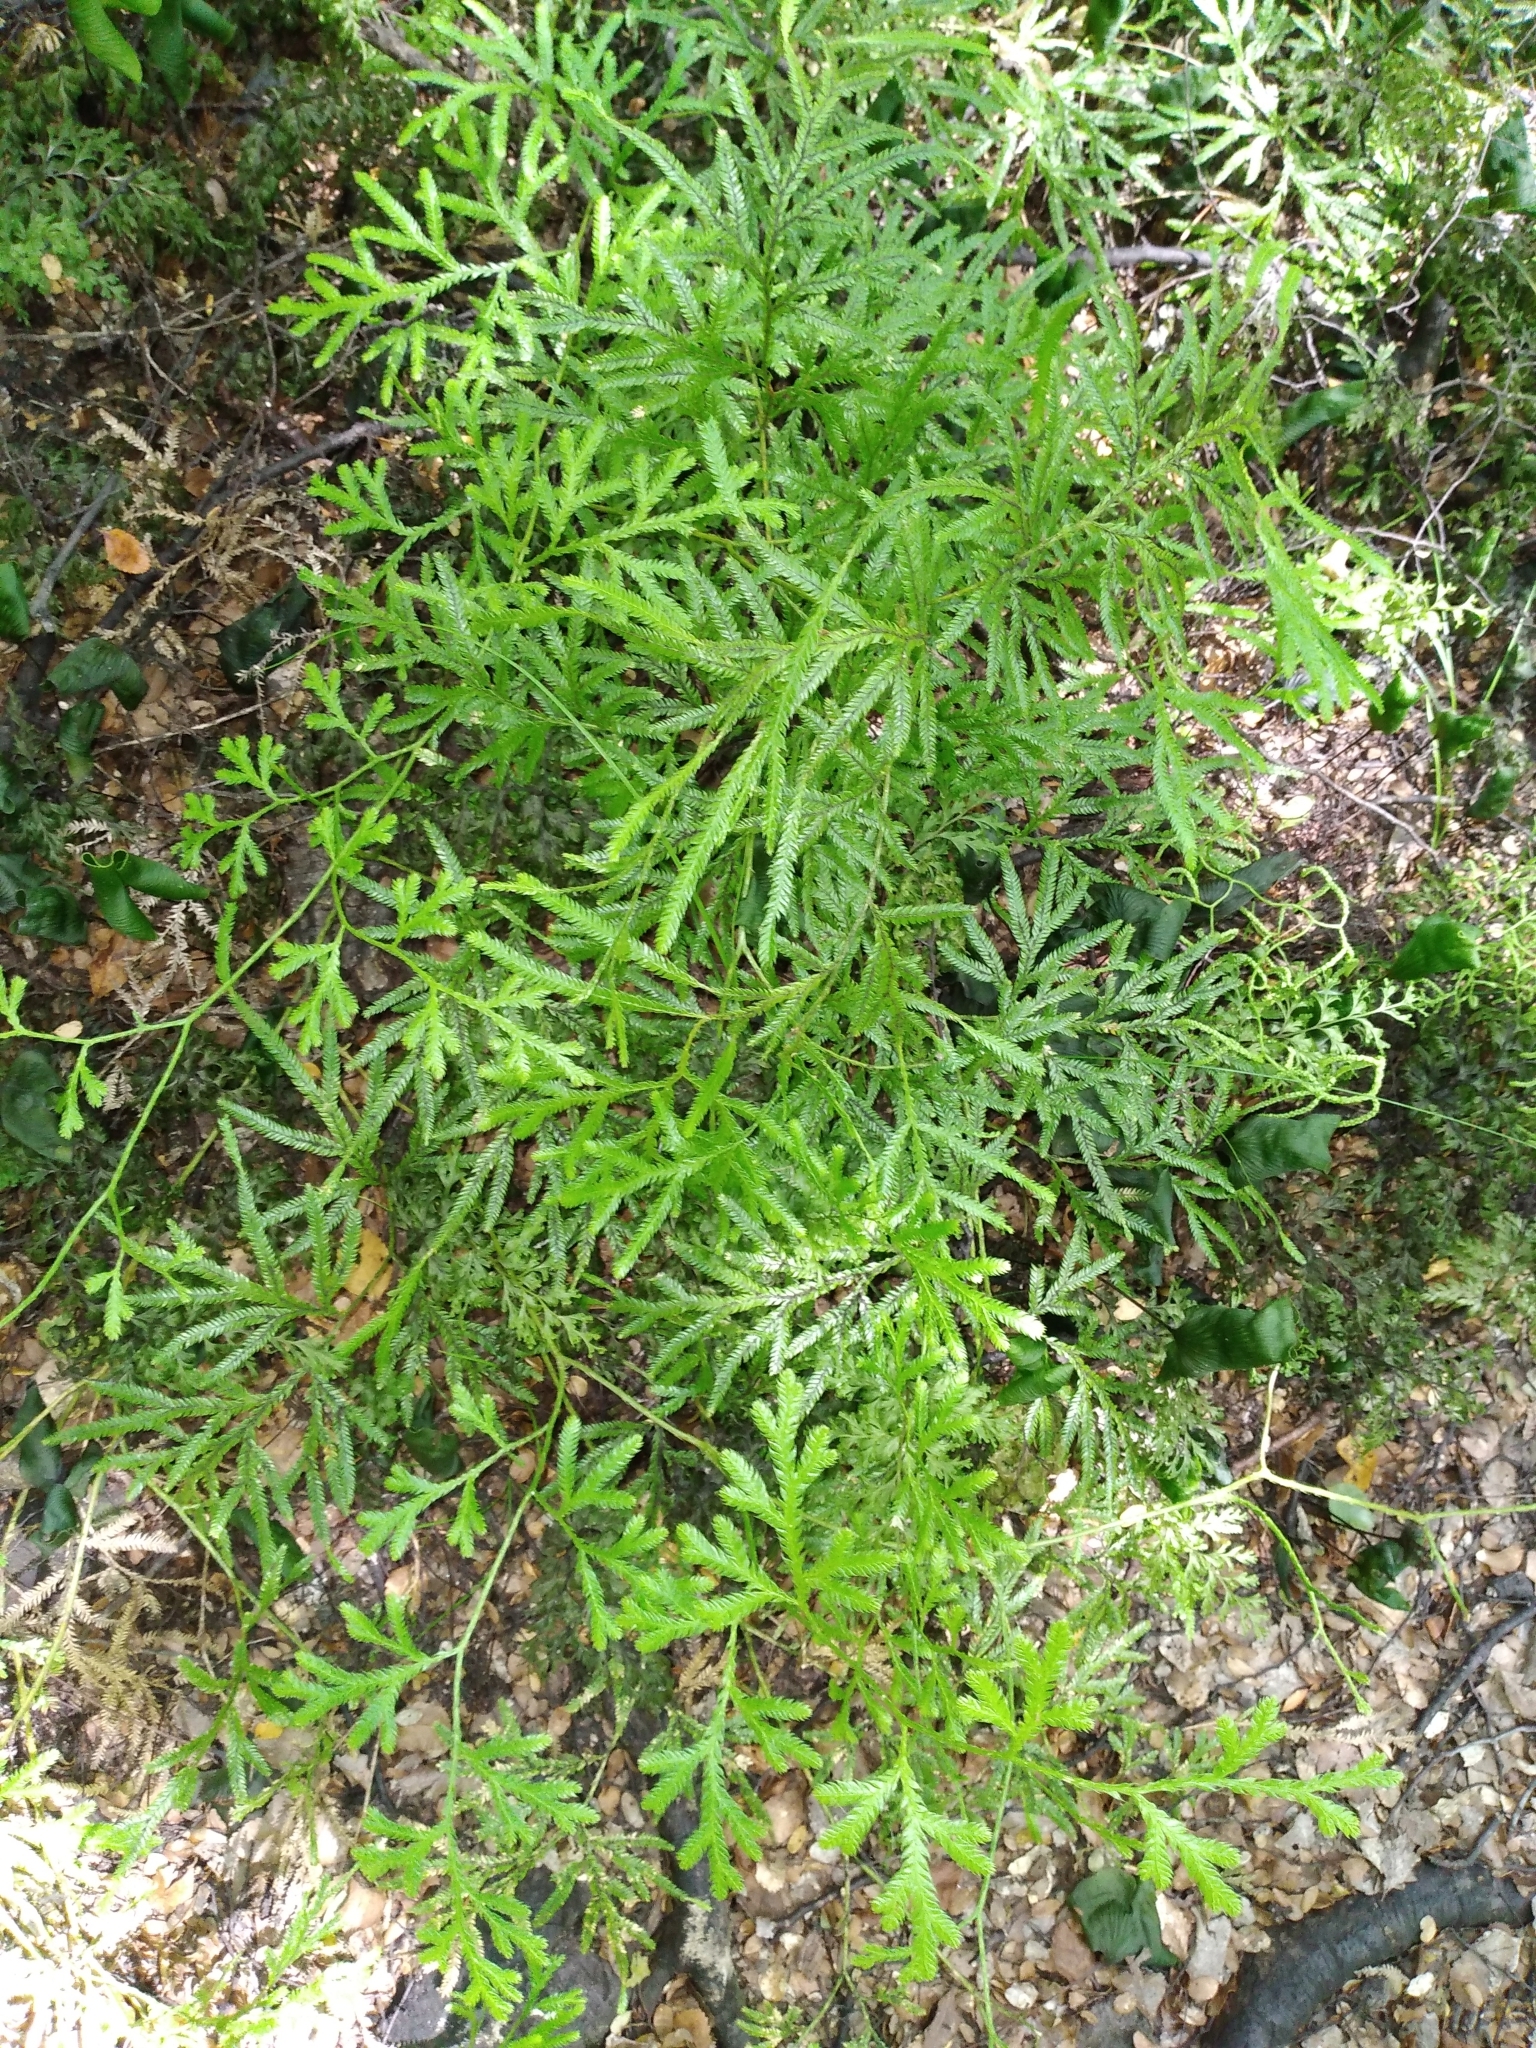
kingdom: Plantae
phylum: Tracheophyta
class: Lycopodiopsida
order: Lycopodiales
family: Lycopodiaceae
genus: Lycopodium
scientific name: Lycopodium volubile
